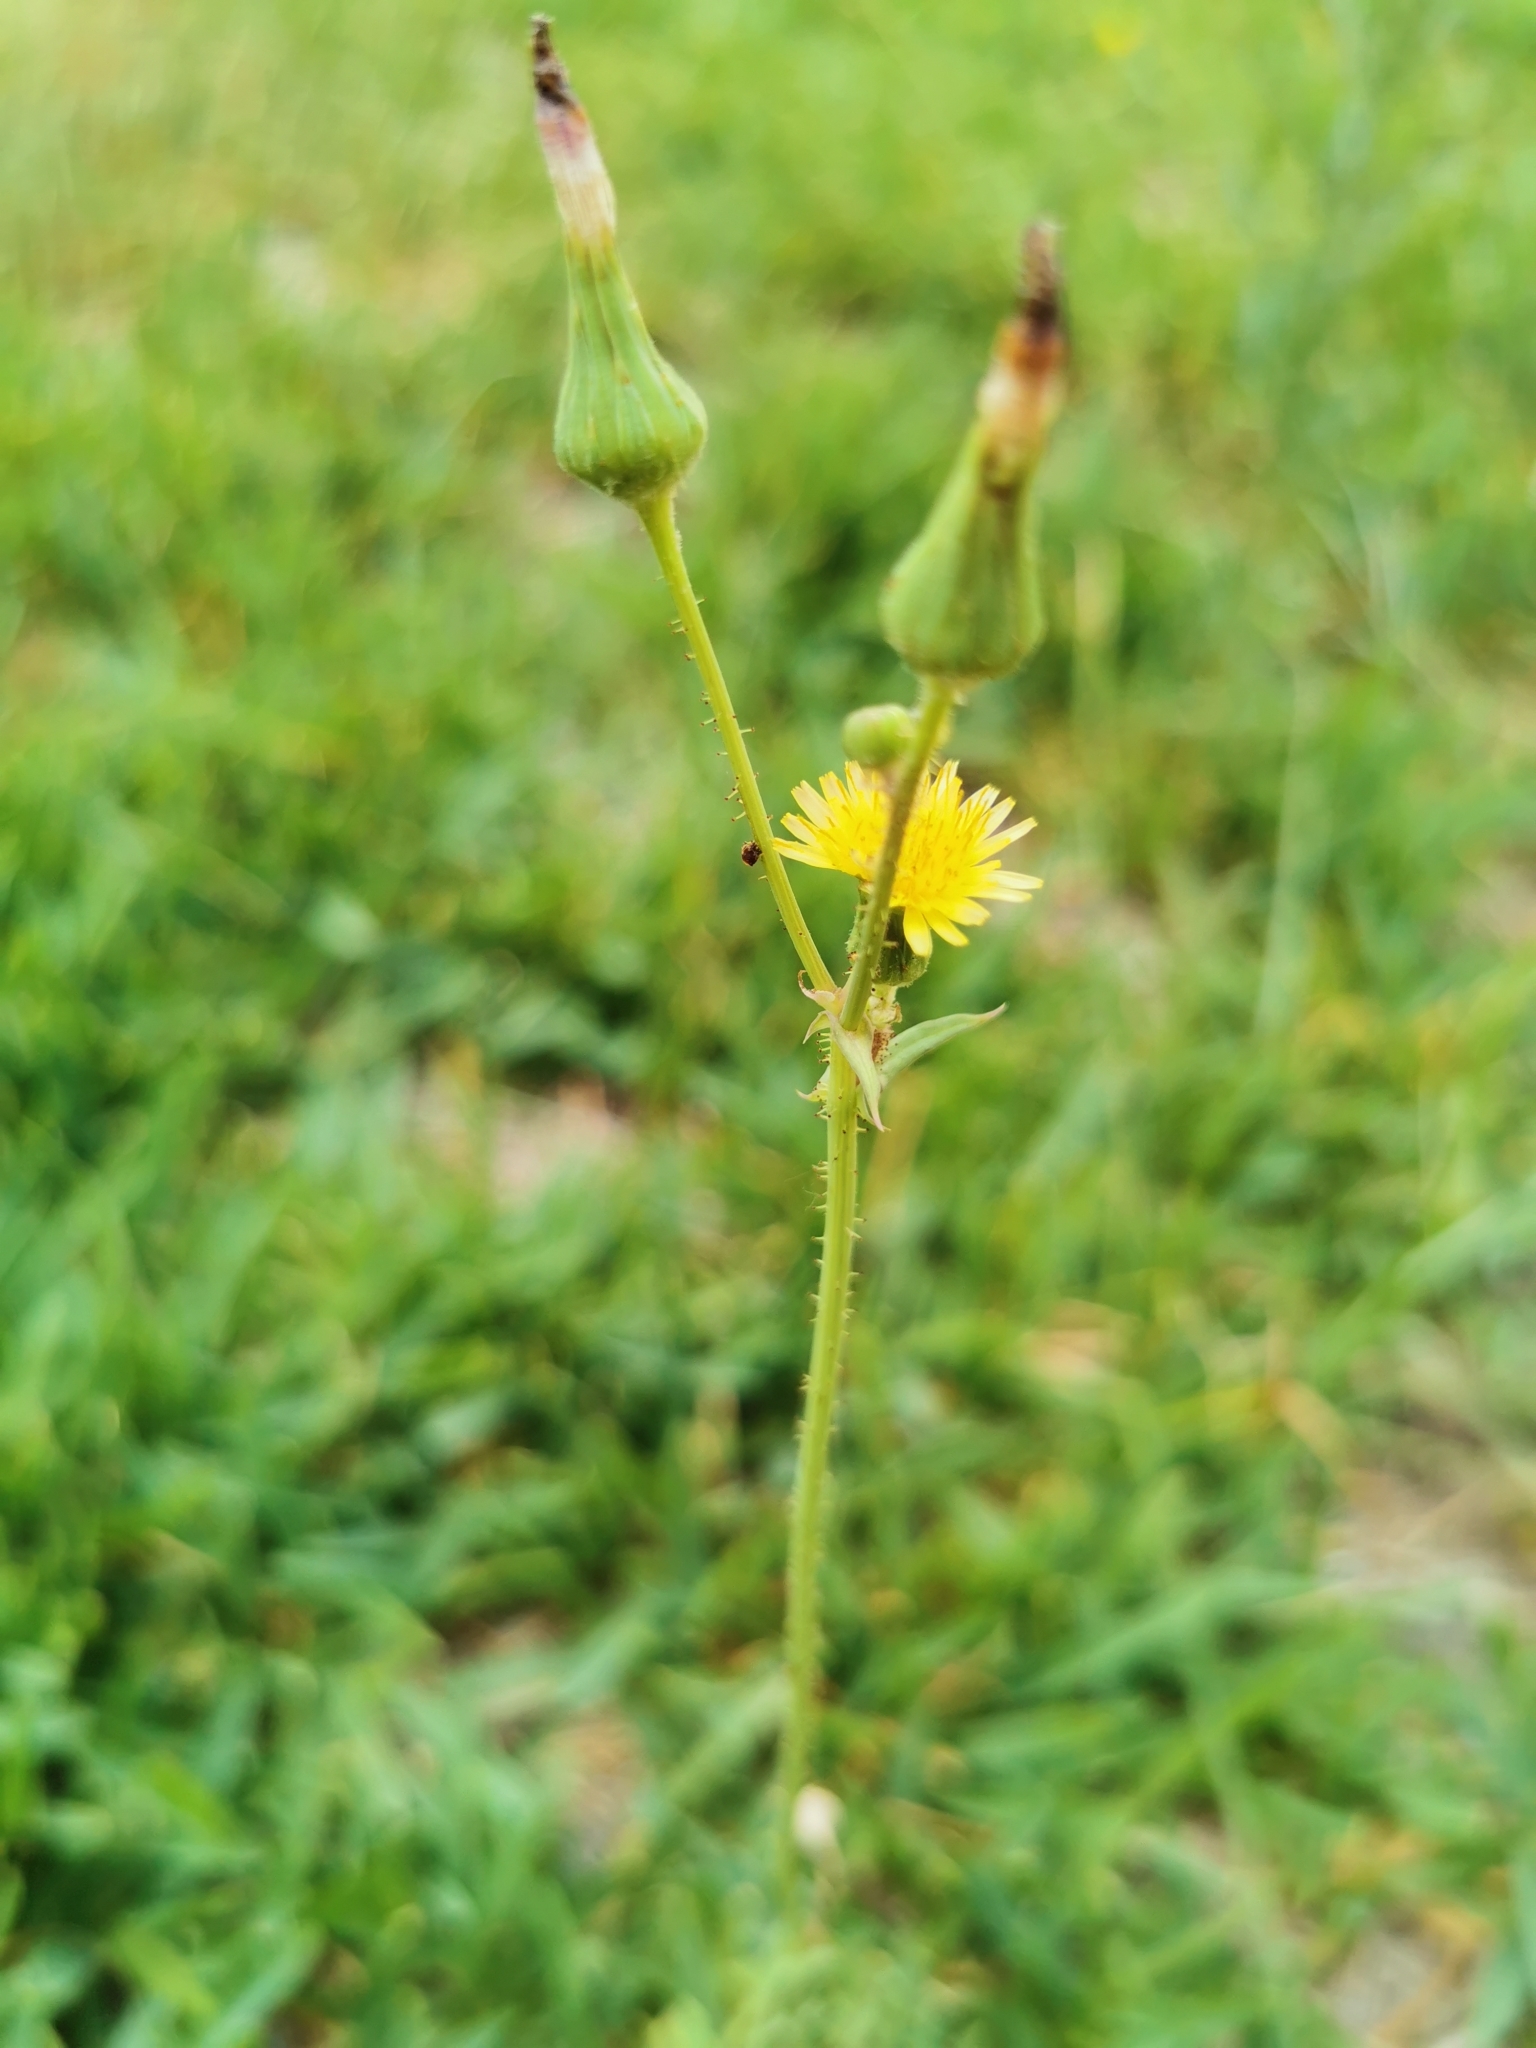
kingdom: Plantae
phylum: Tracheophyta
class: Magnoliopsida
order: Asterales
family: Asteraceae
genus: Sonchus
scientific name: Sonchus asper
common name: Prickly sow-thistle
